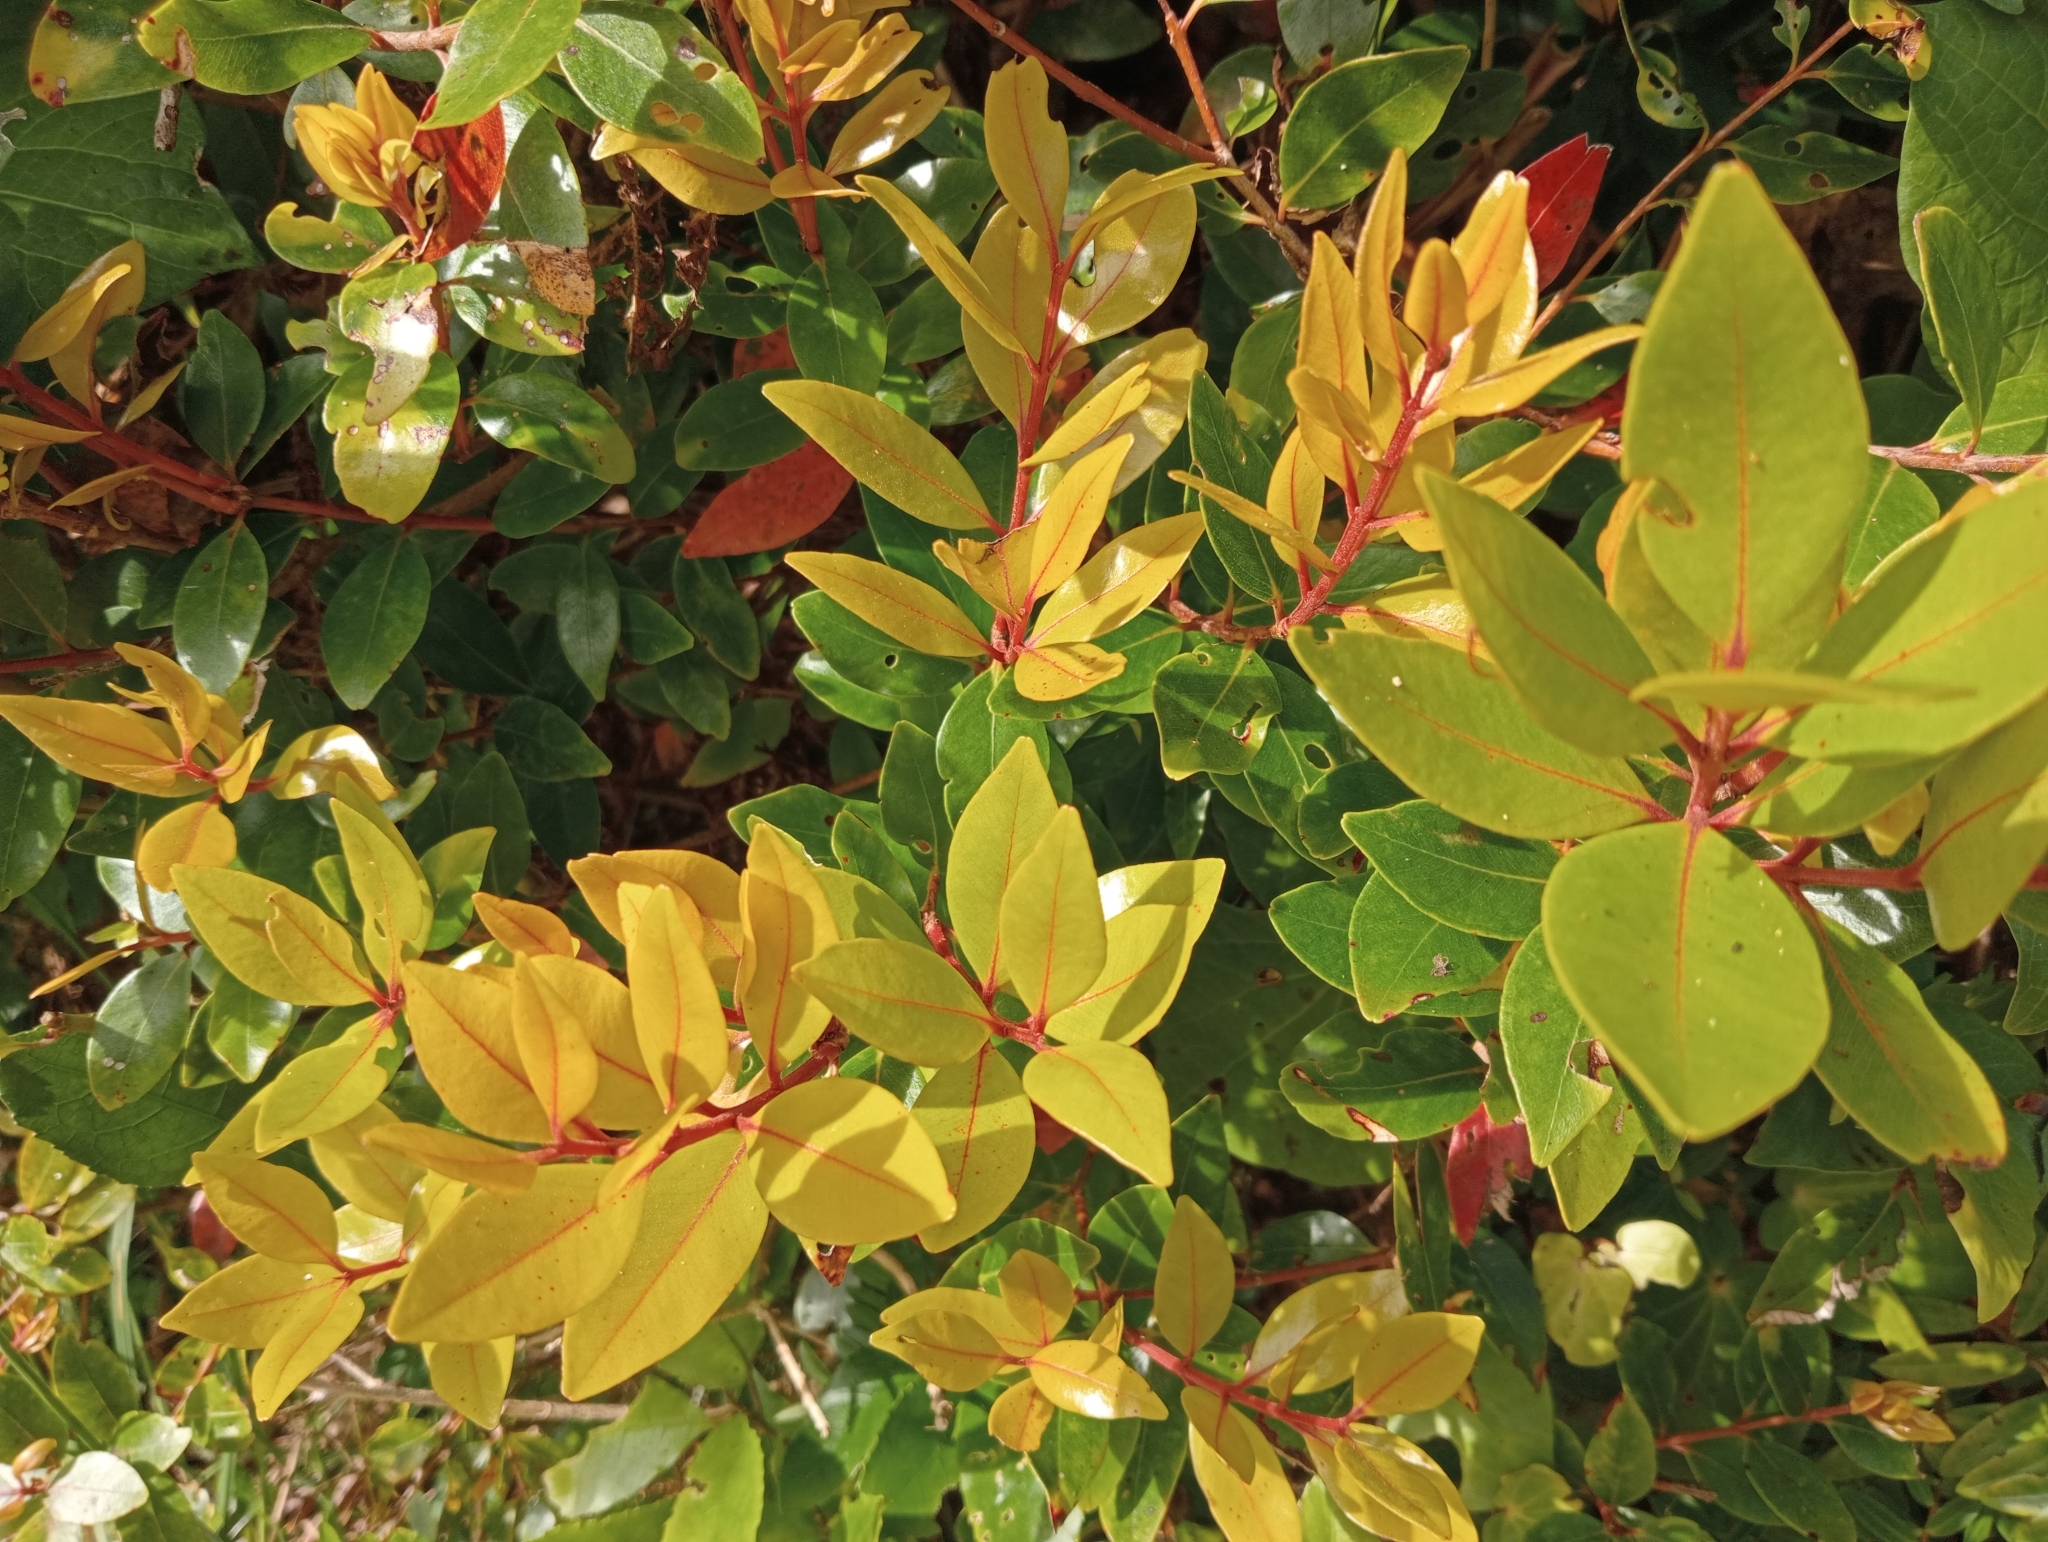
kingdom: Plantae
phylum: Tracheophyta
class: Magnoliopsida
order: Myrtales
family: Myrtaceae
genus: Metrosideros
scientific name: Metrosideros robusta
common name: Northern rata
